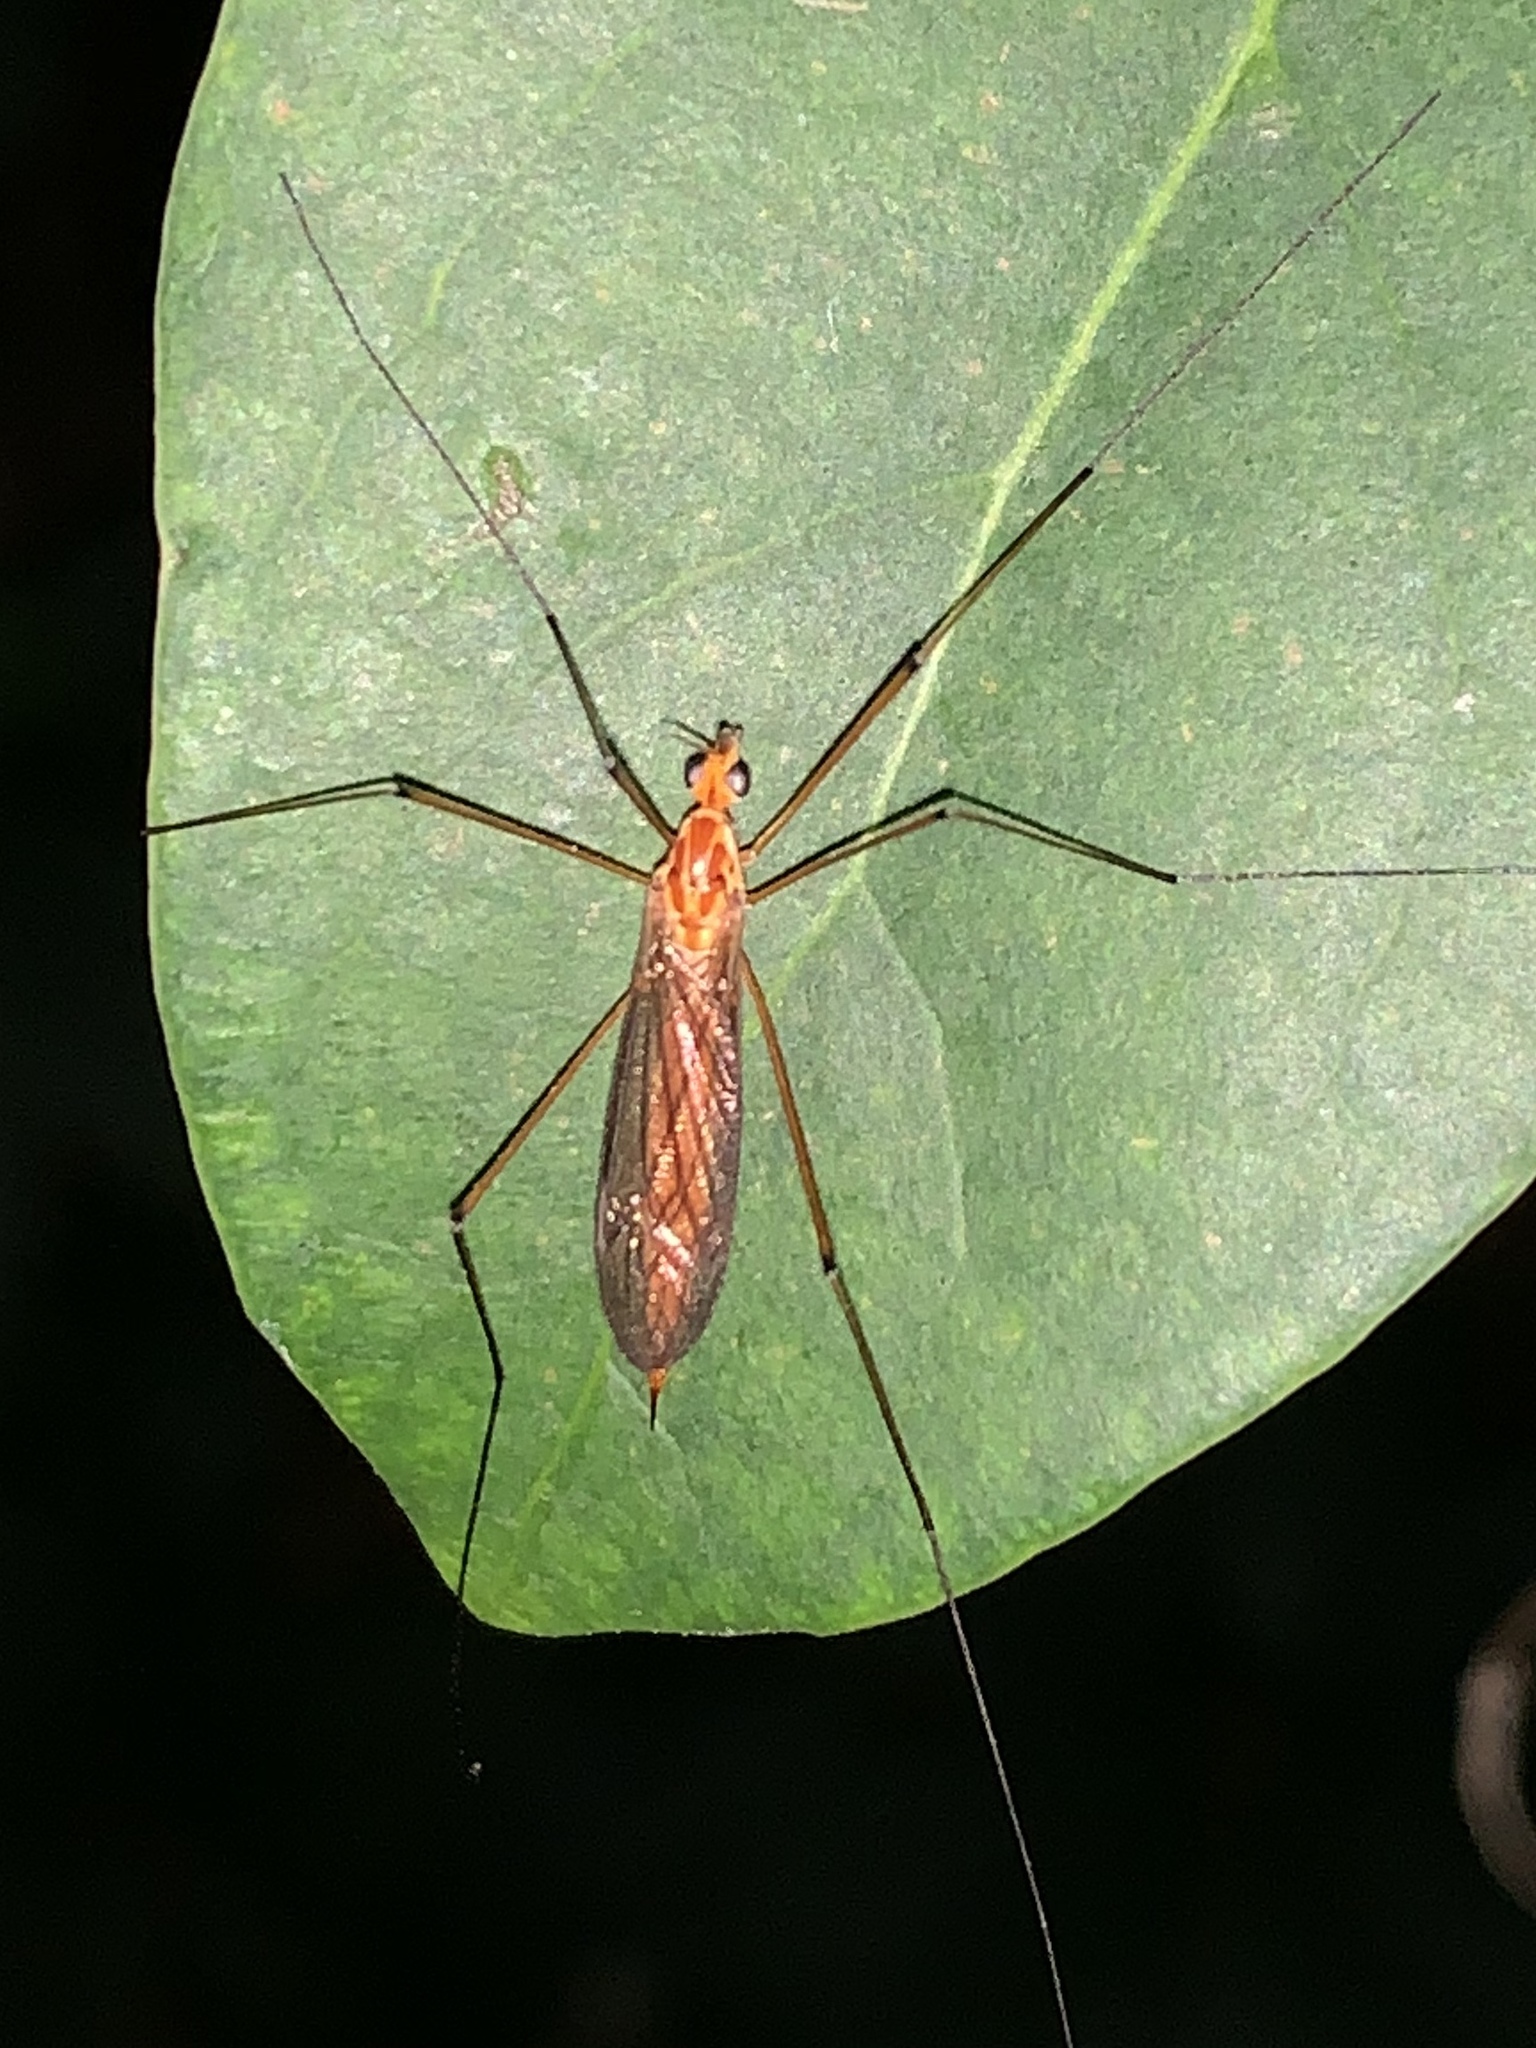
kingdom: Animalia
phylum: Arthropoda
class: Insecta
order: Diptera
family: Tipulidae
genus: Nephrotoma
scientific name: Nephrotoma
